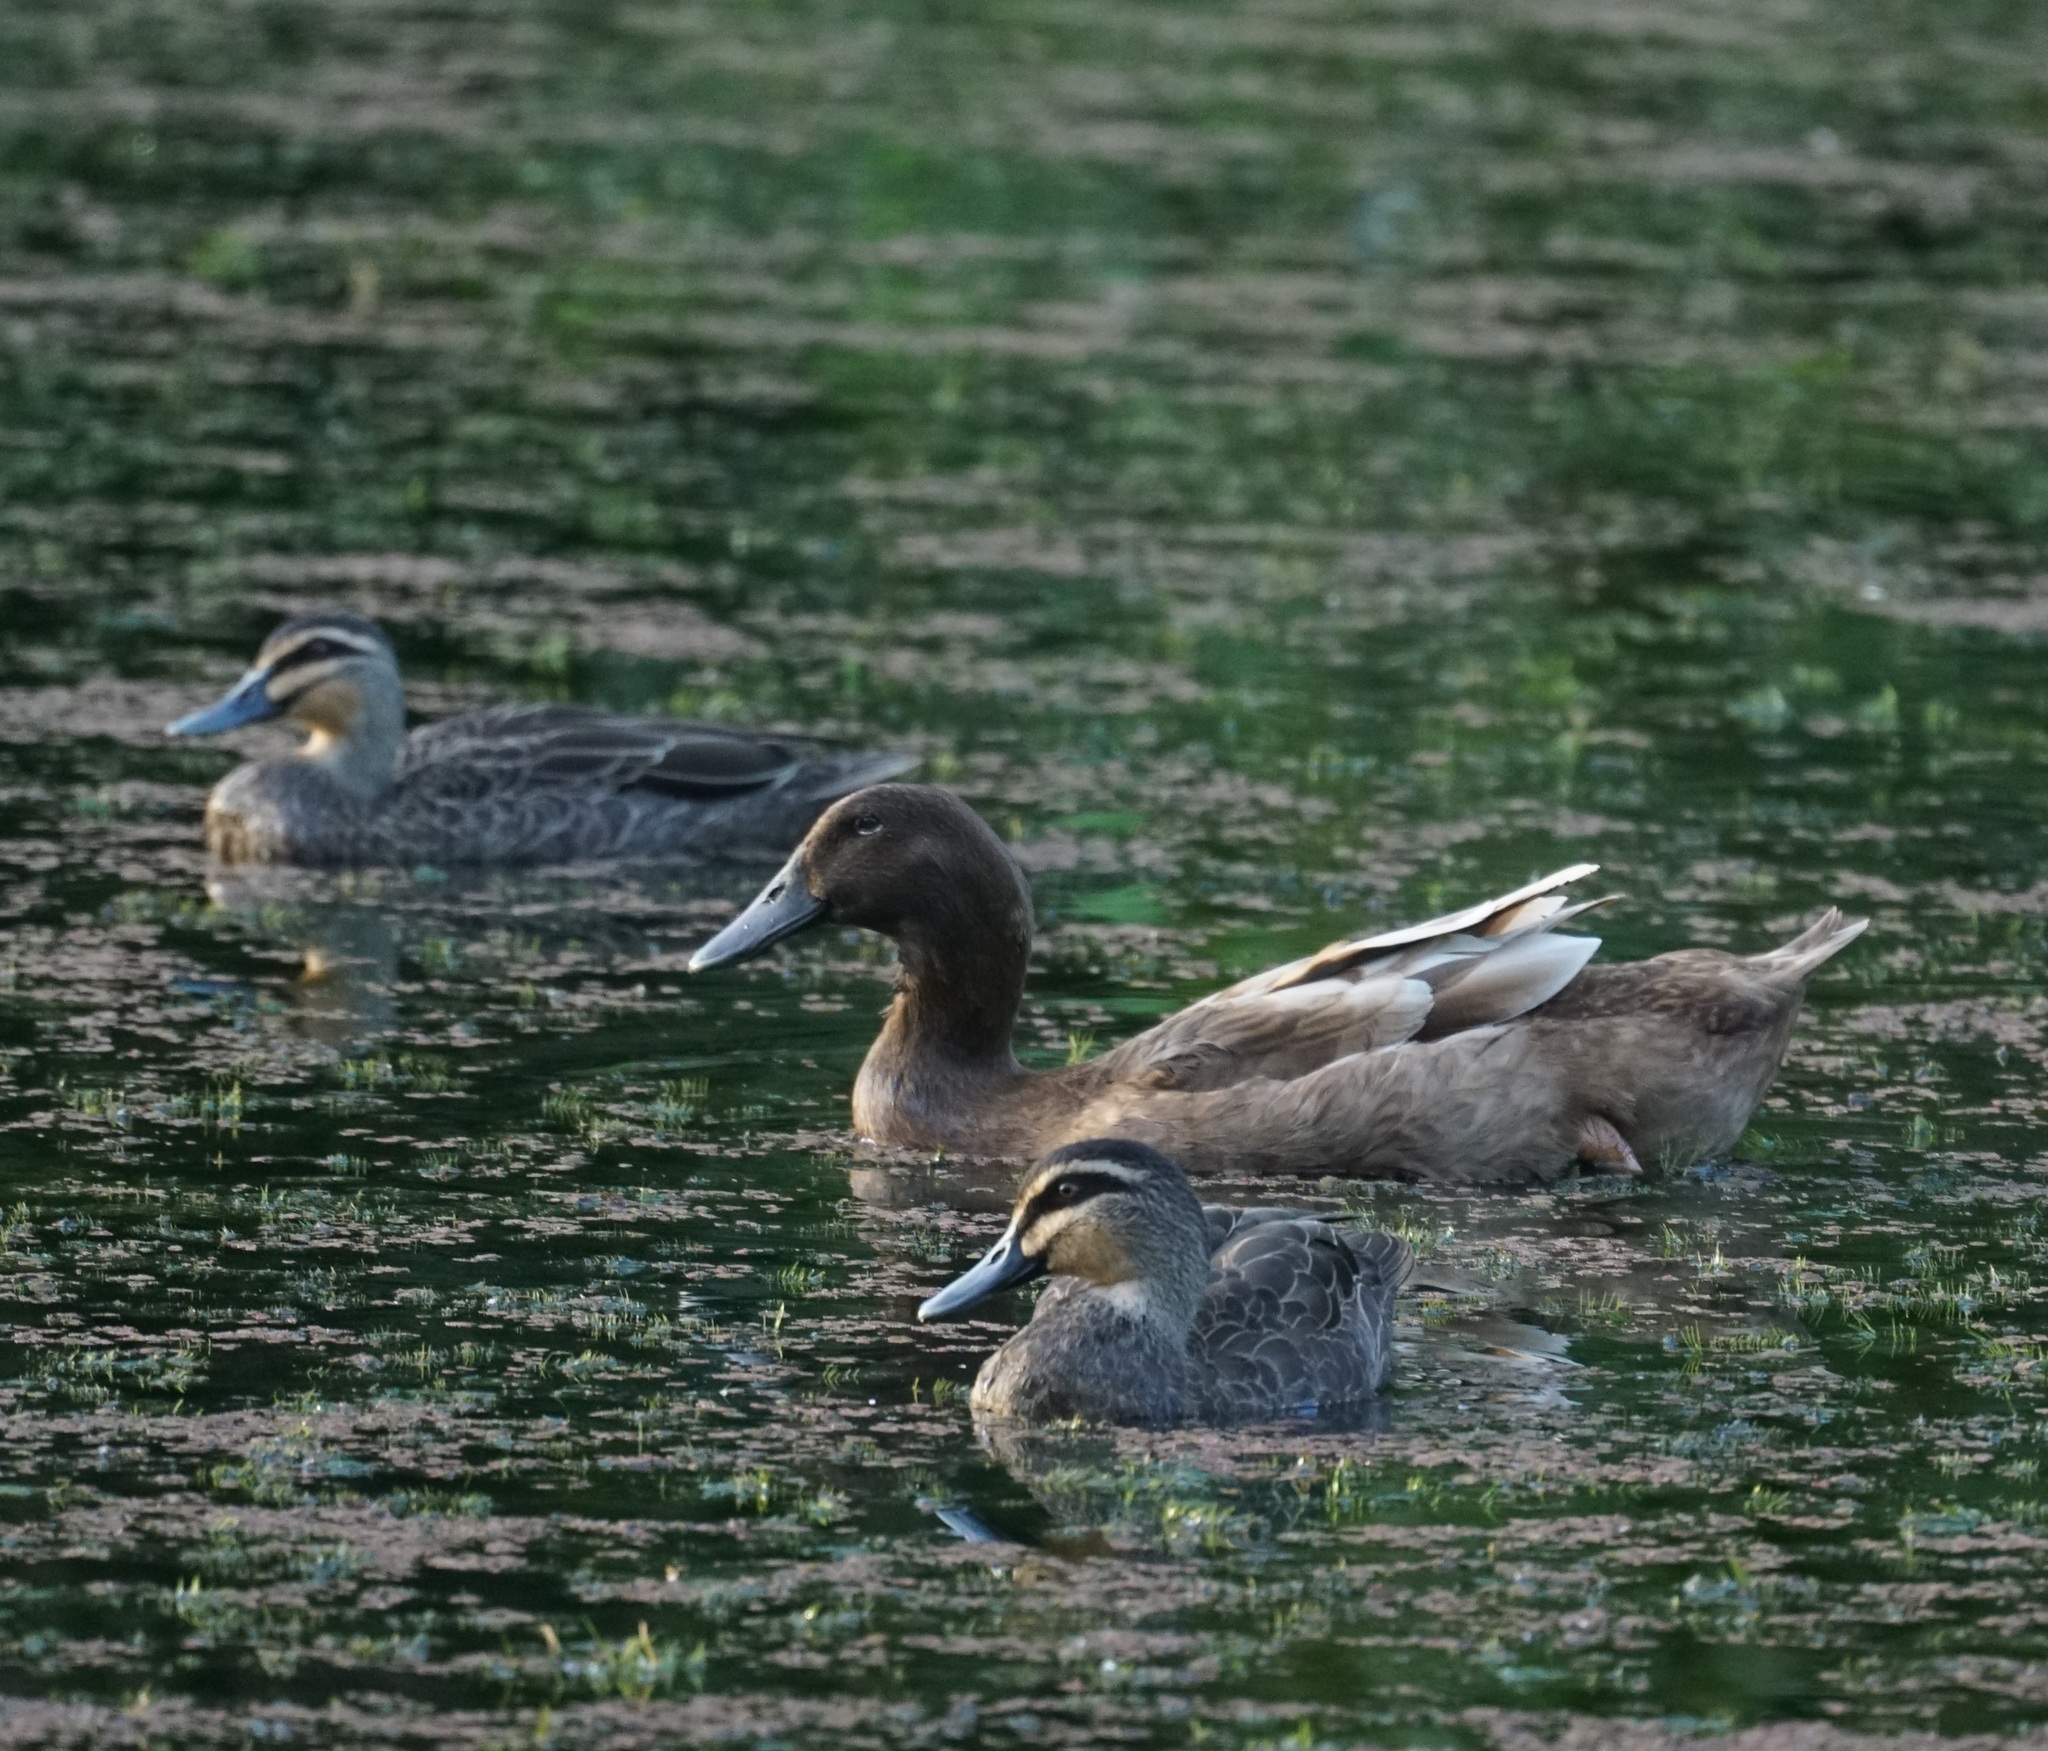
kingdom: Animalia
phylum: Chordata
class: Aves
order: Anseriformes
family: Anatidae
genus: Anas
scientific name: Anas platyrhynchos
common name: Mallard
